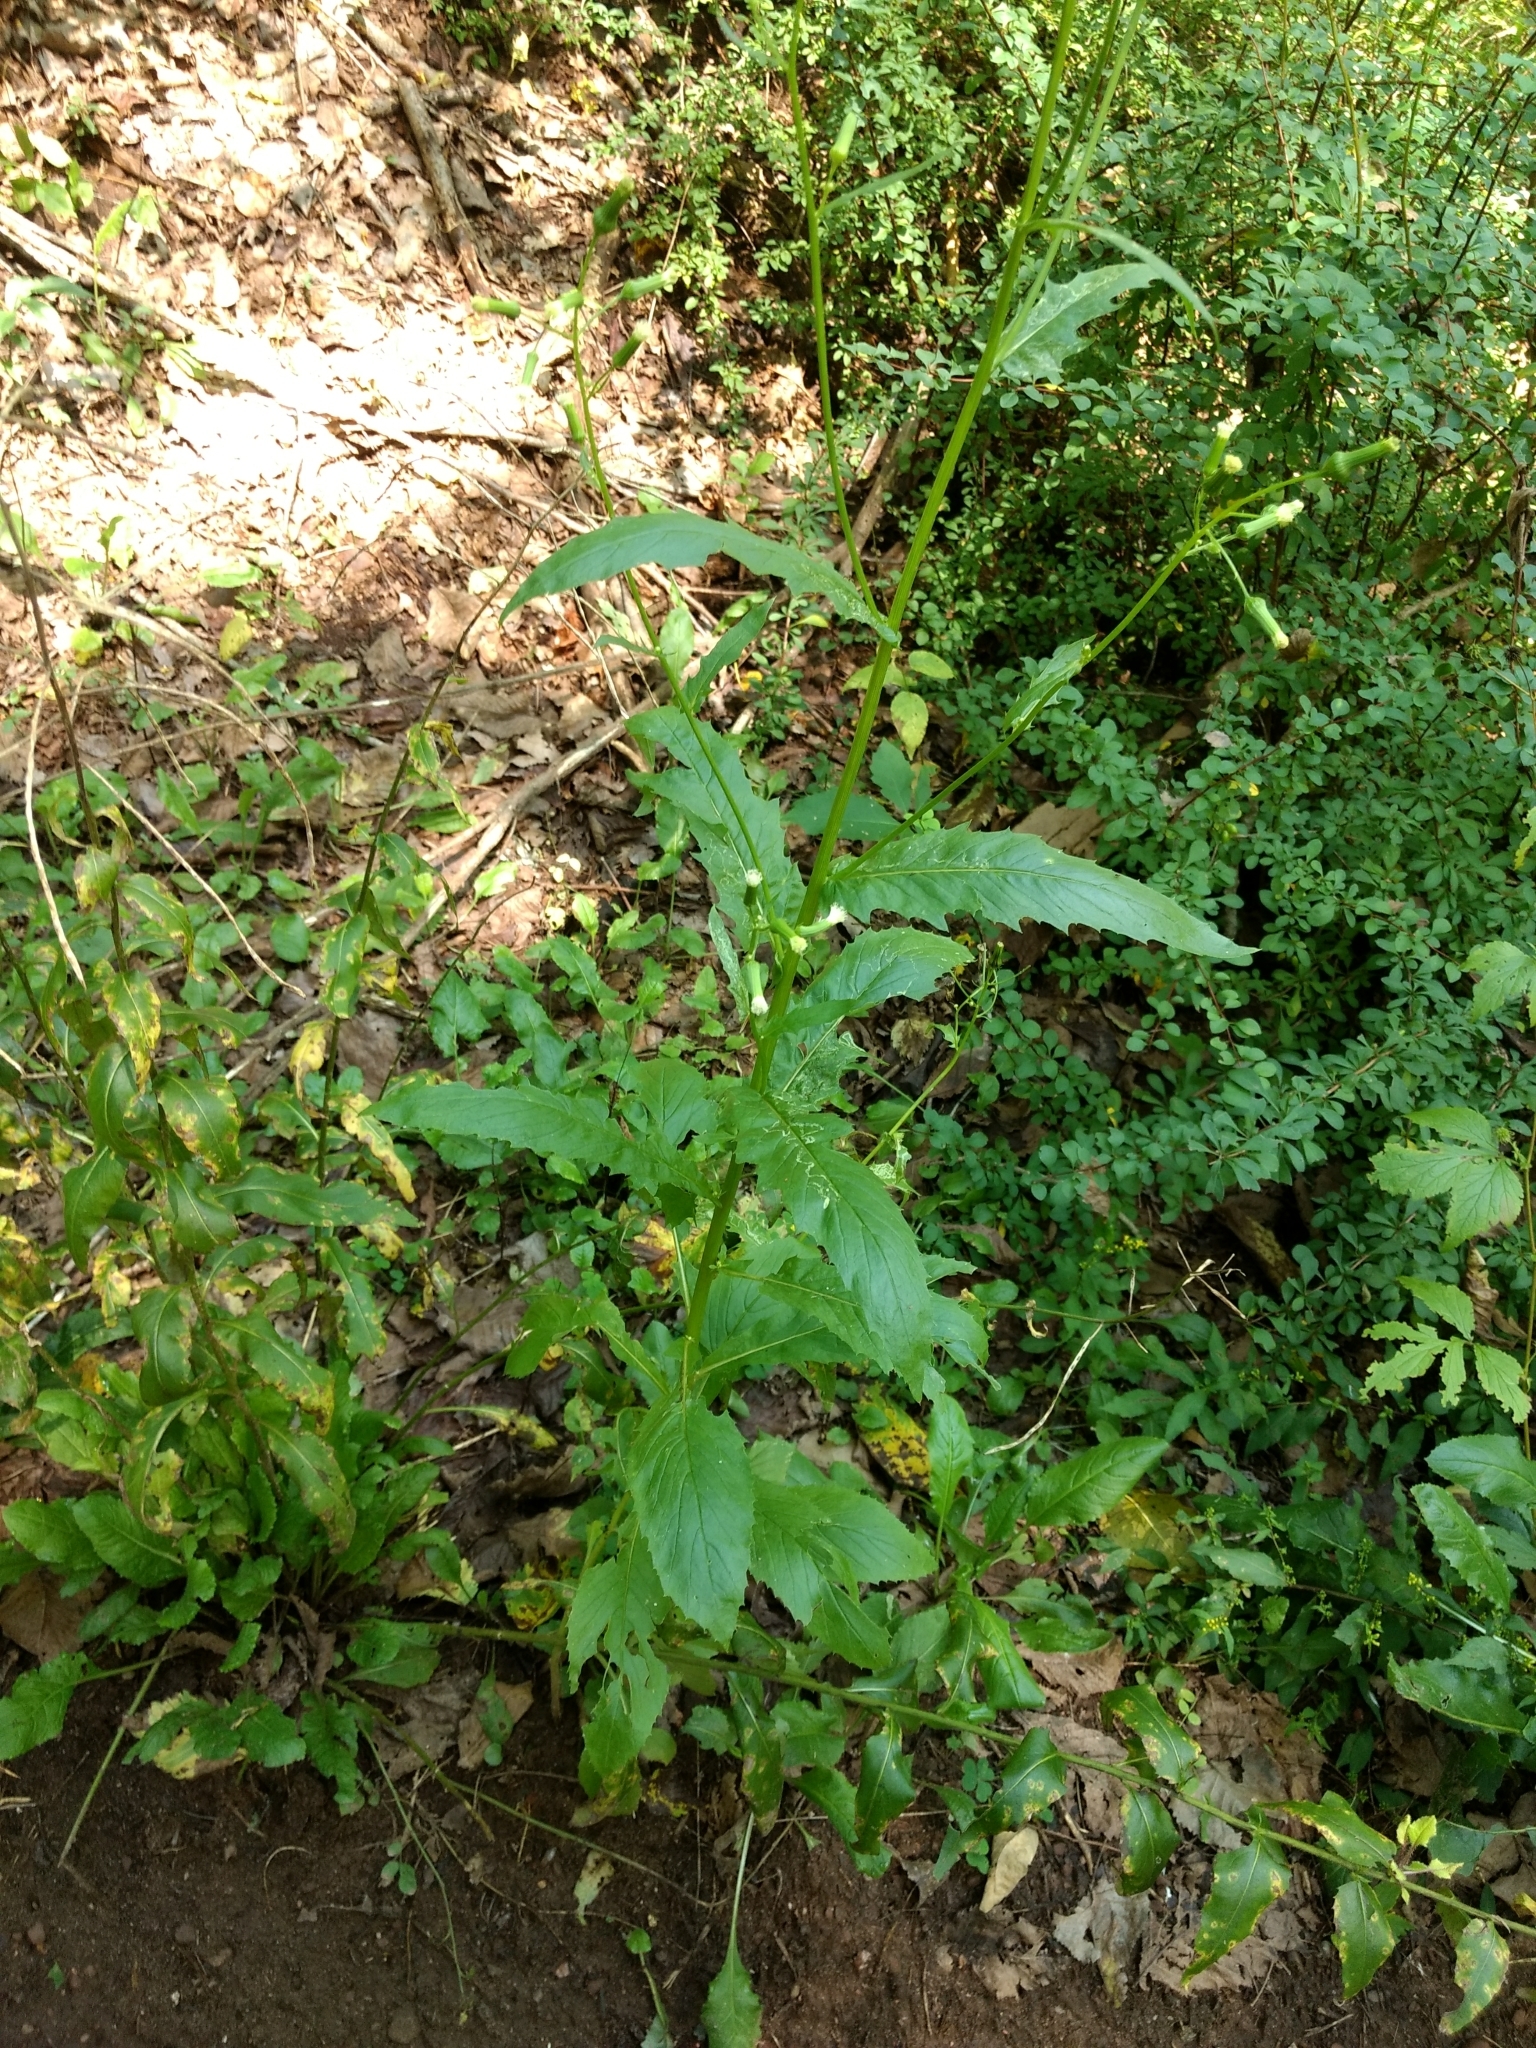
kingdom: Plantae
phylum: Tracheophyta
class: Magnoliopsida
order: Asterales
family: Asteraceae
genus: Erechtites
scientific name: Erechtites hieraciifolius
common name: American burnweed
